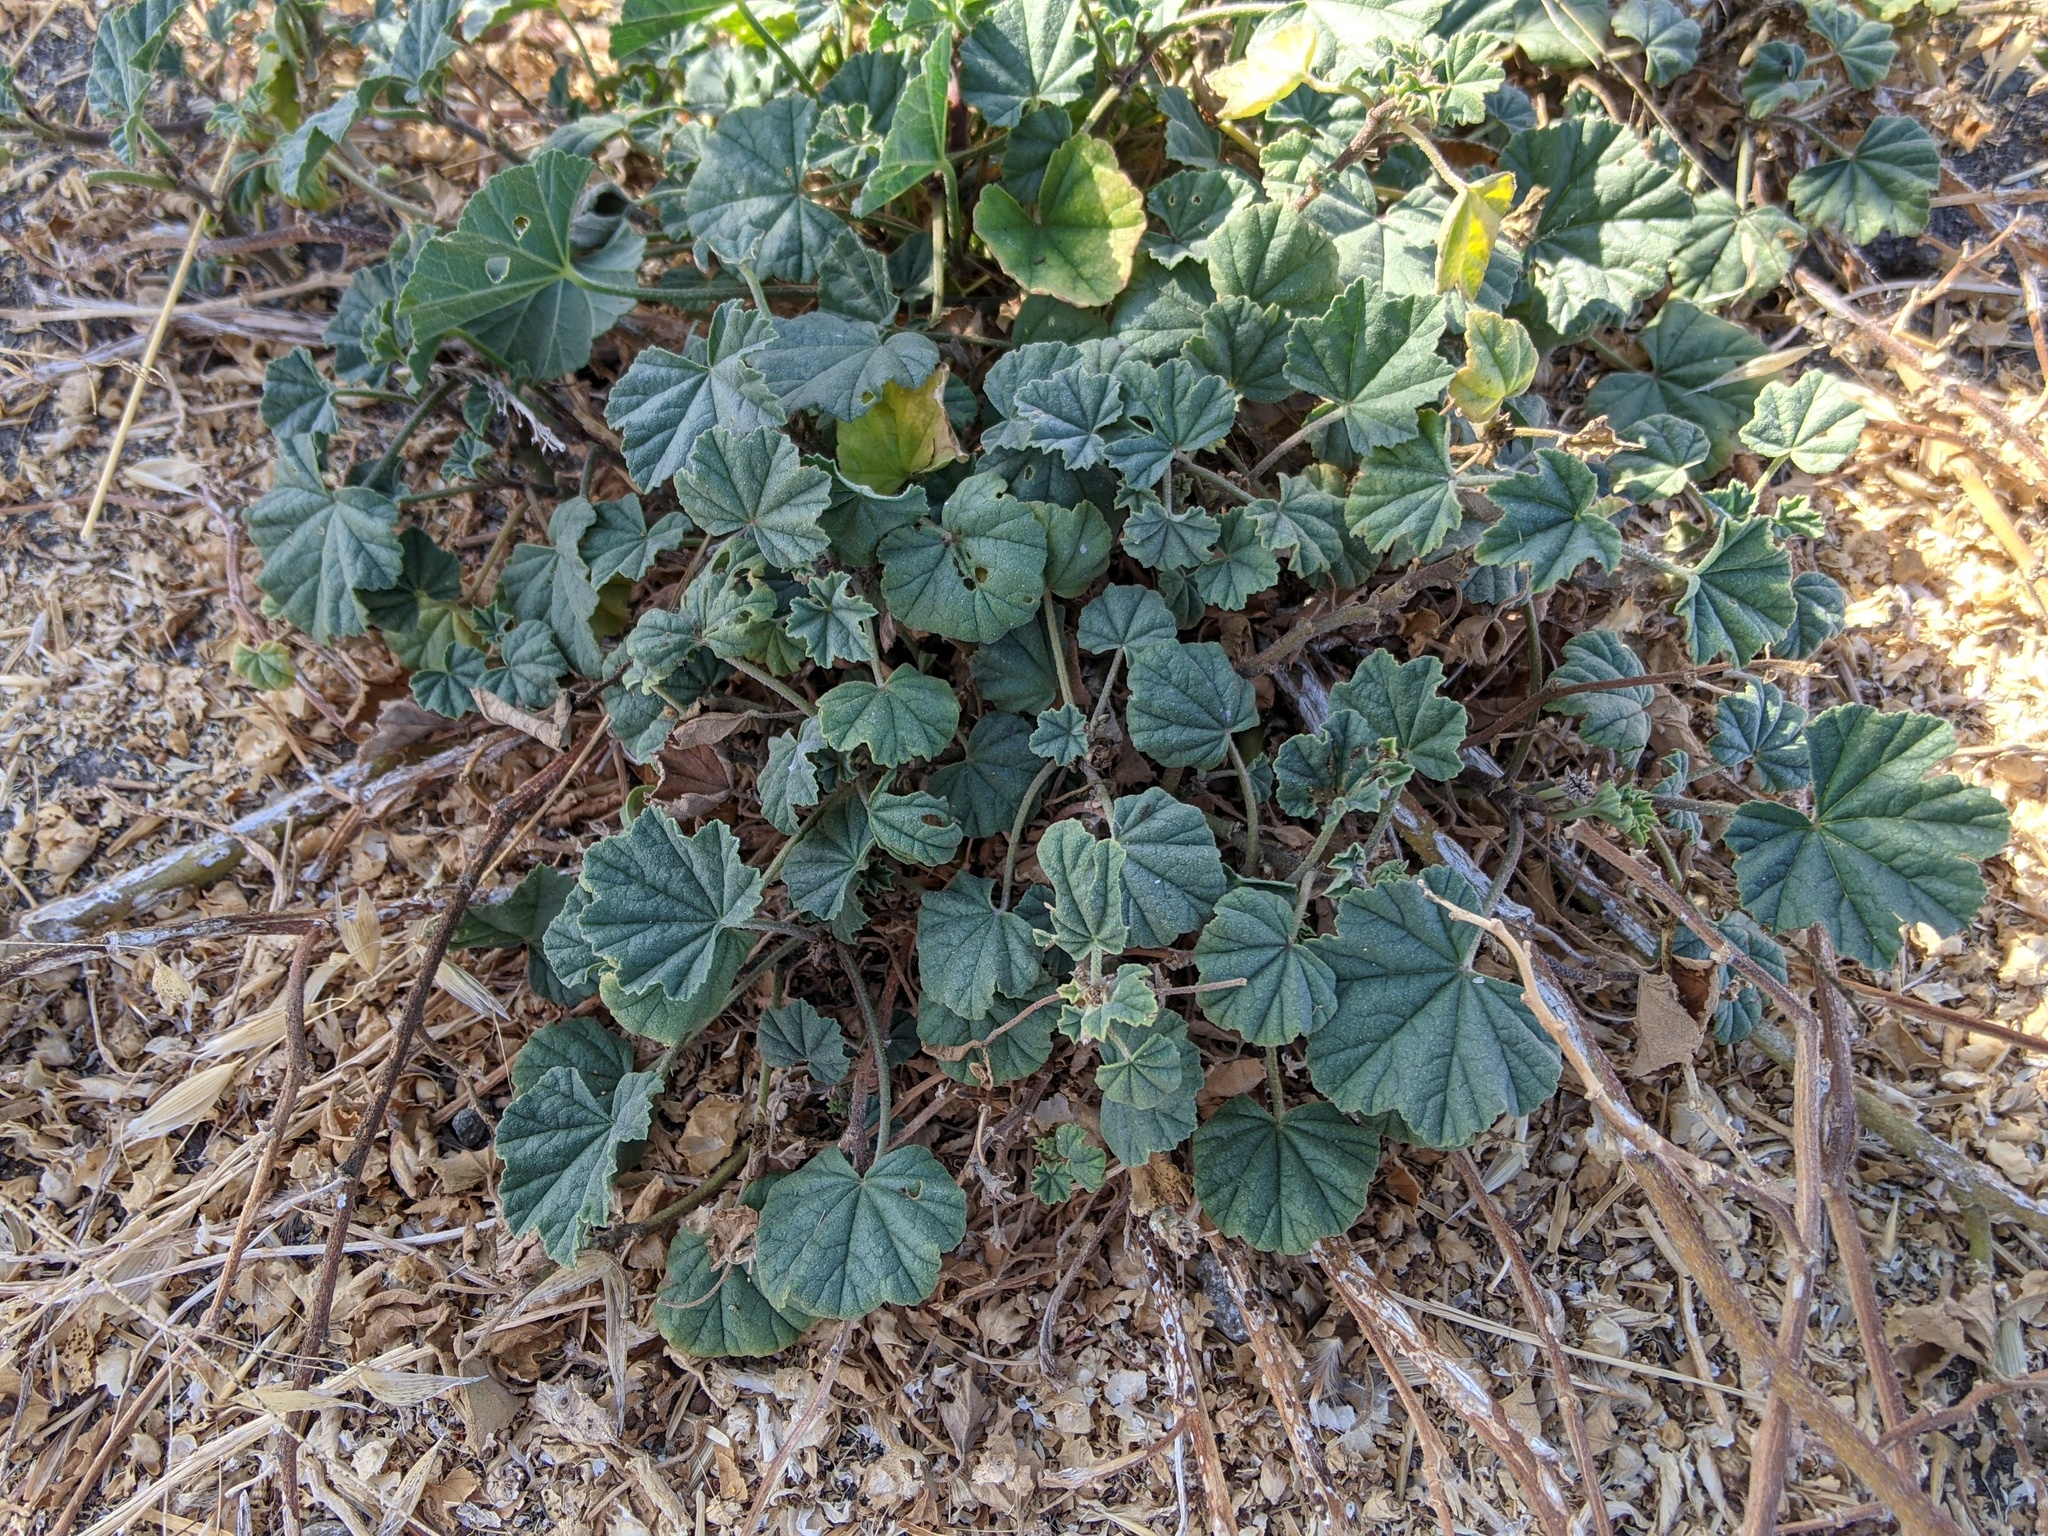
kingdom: Plantae
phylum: Tracheophyta
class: Magnoliopsida
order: Malvales
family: Malvaceae
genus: Malva
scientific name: Malva
